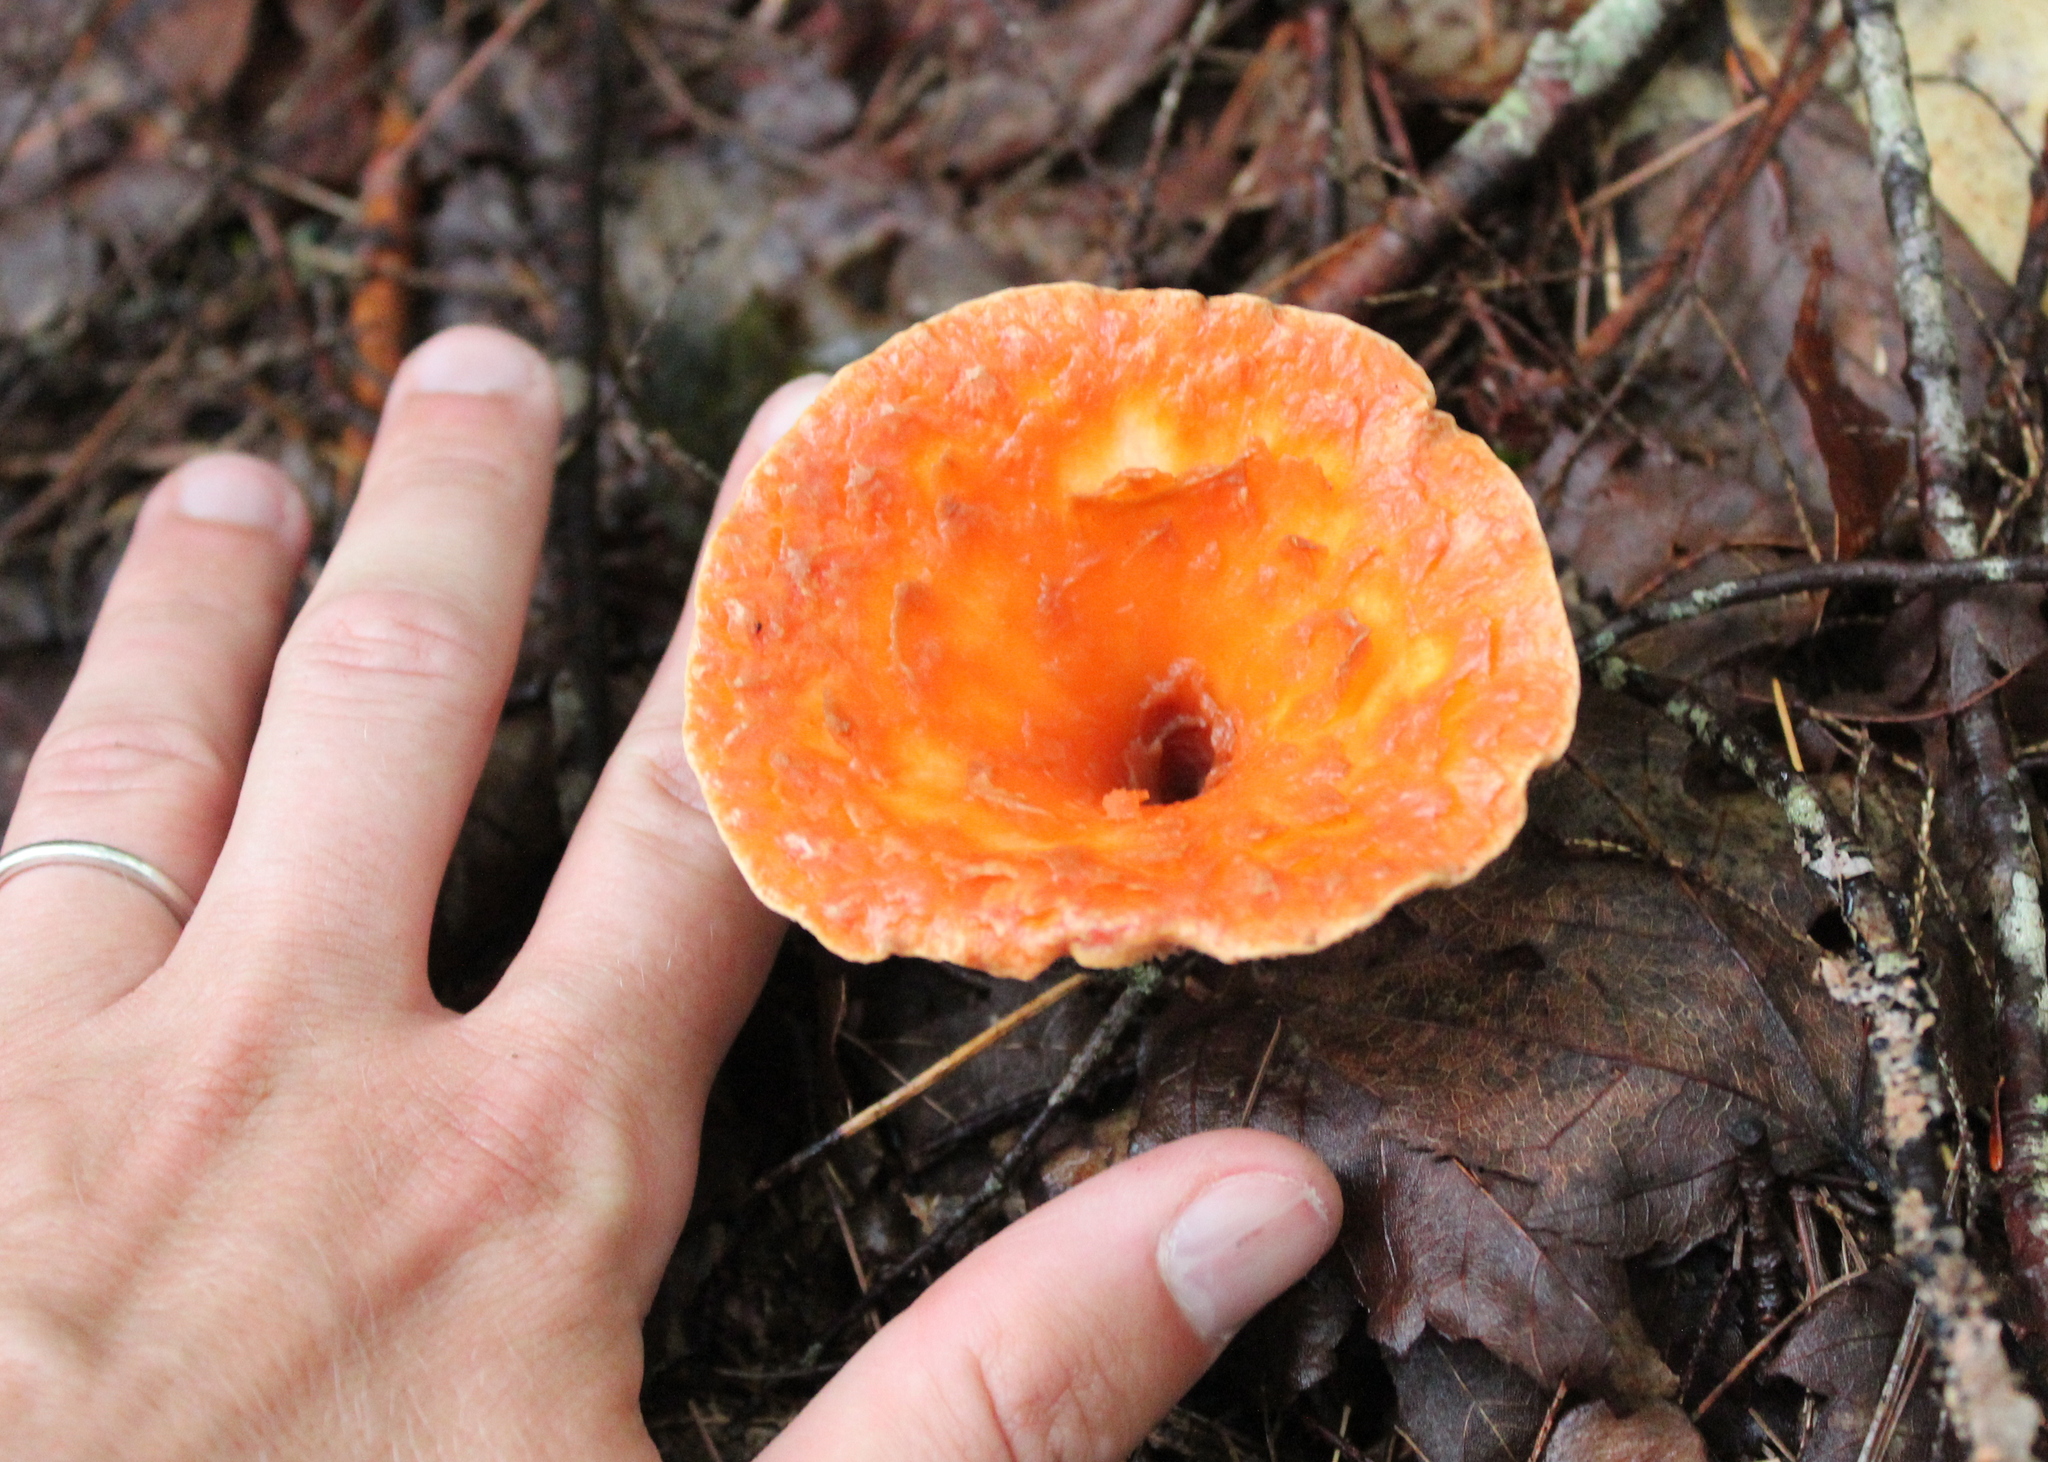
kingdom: Fungi
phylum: Basidiomycota
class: Agaricomycetes
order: Gomphales
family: Gomphaceae
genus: Turbinellus
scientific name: Turbinellus floccosus
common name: Scaly chanterelle
